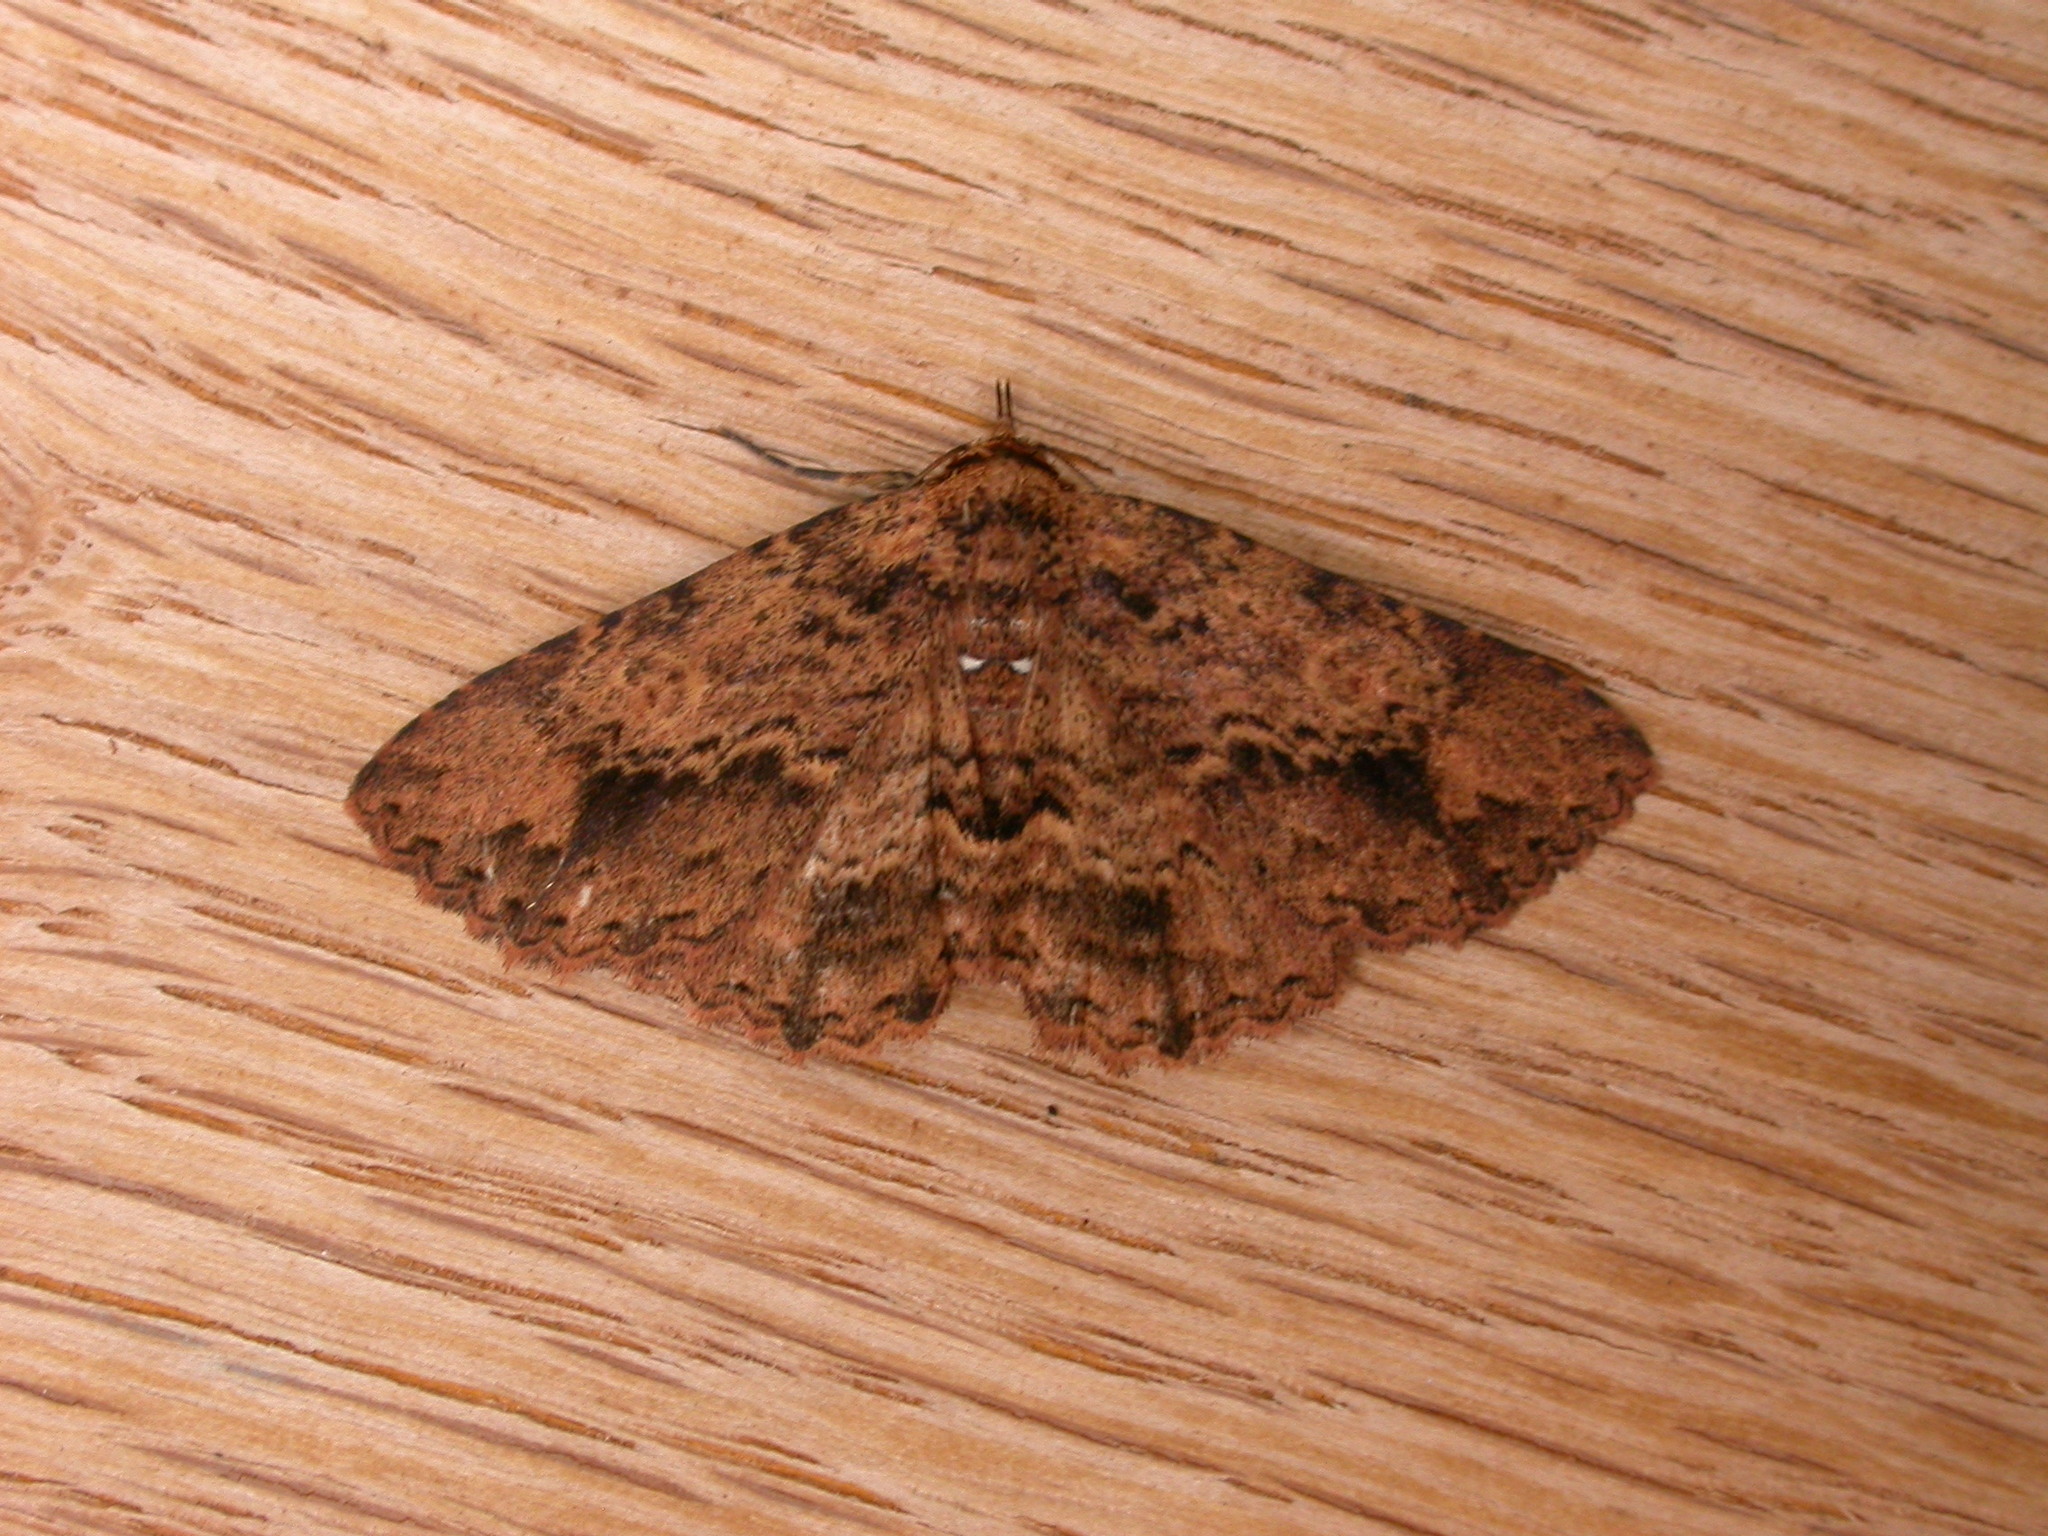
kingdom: Animalia
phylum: Arthropoda
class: Insecta
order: Lepidoptera
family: Erebidae
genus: Artigisa
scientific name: Artigisa melanephele
